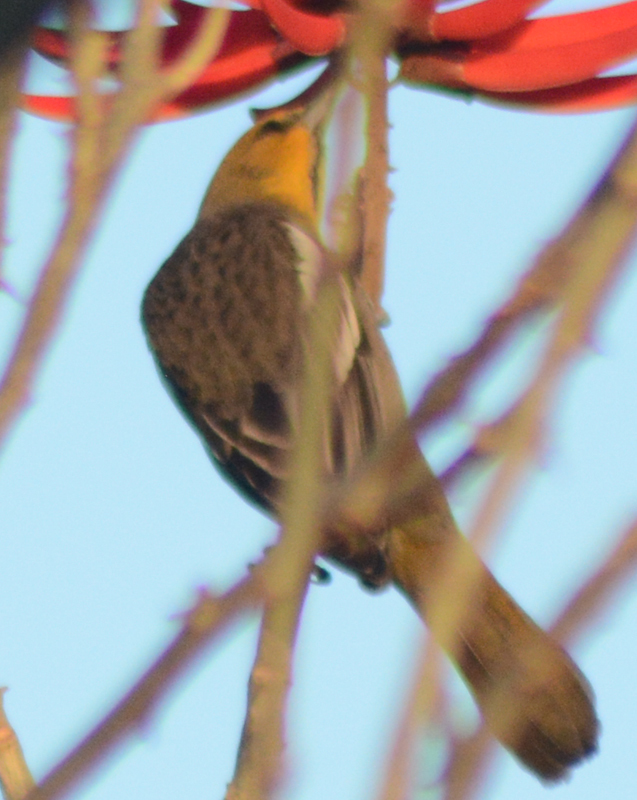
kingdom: Animalia
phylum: Chordata
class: Aves
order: Passeriformes
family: Icteridae
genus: Icterus
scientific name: Icterus abeillei
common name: Black-backed oriole
